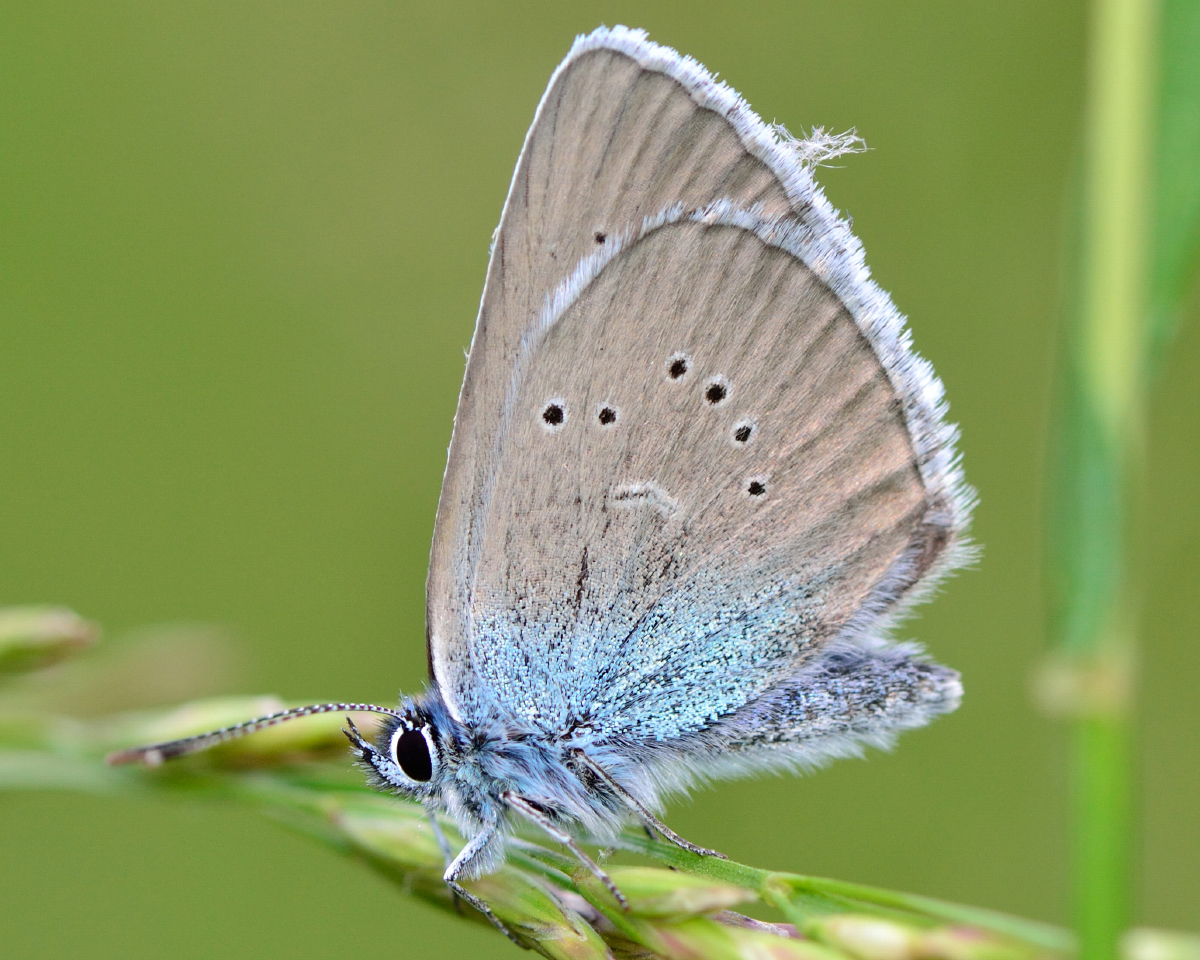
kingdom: Animalia
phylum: Arthropoda
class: Insecta
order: Lepidoptera
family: Lycaenidae
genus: Cyaniris
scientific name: Cyaniris semiargus
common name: Mazarine blue
